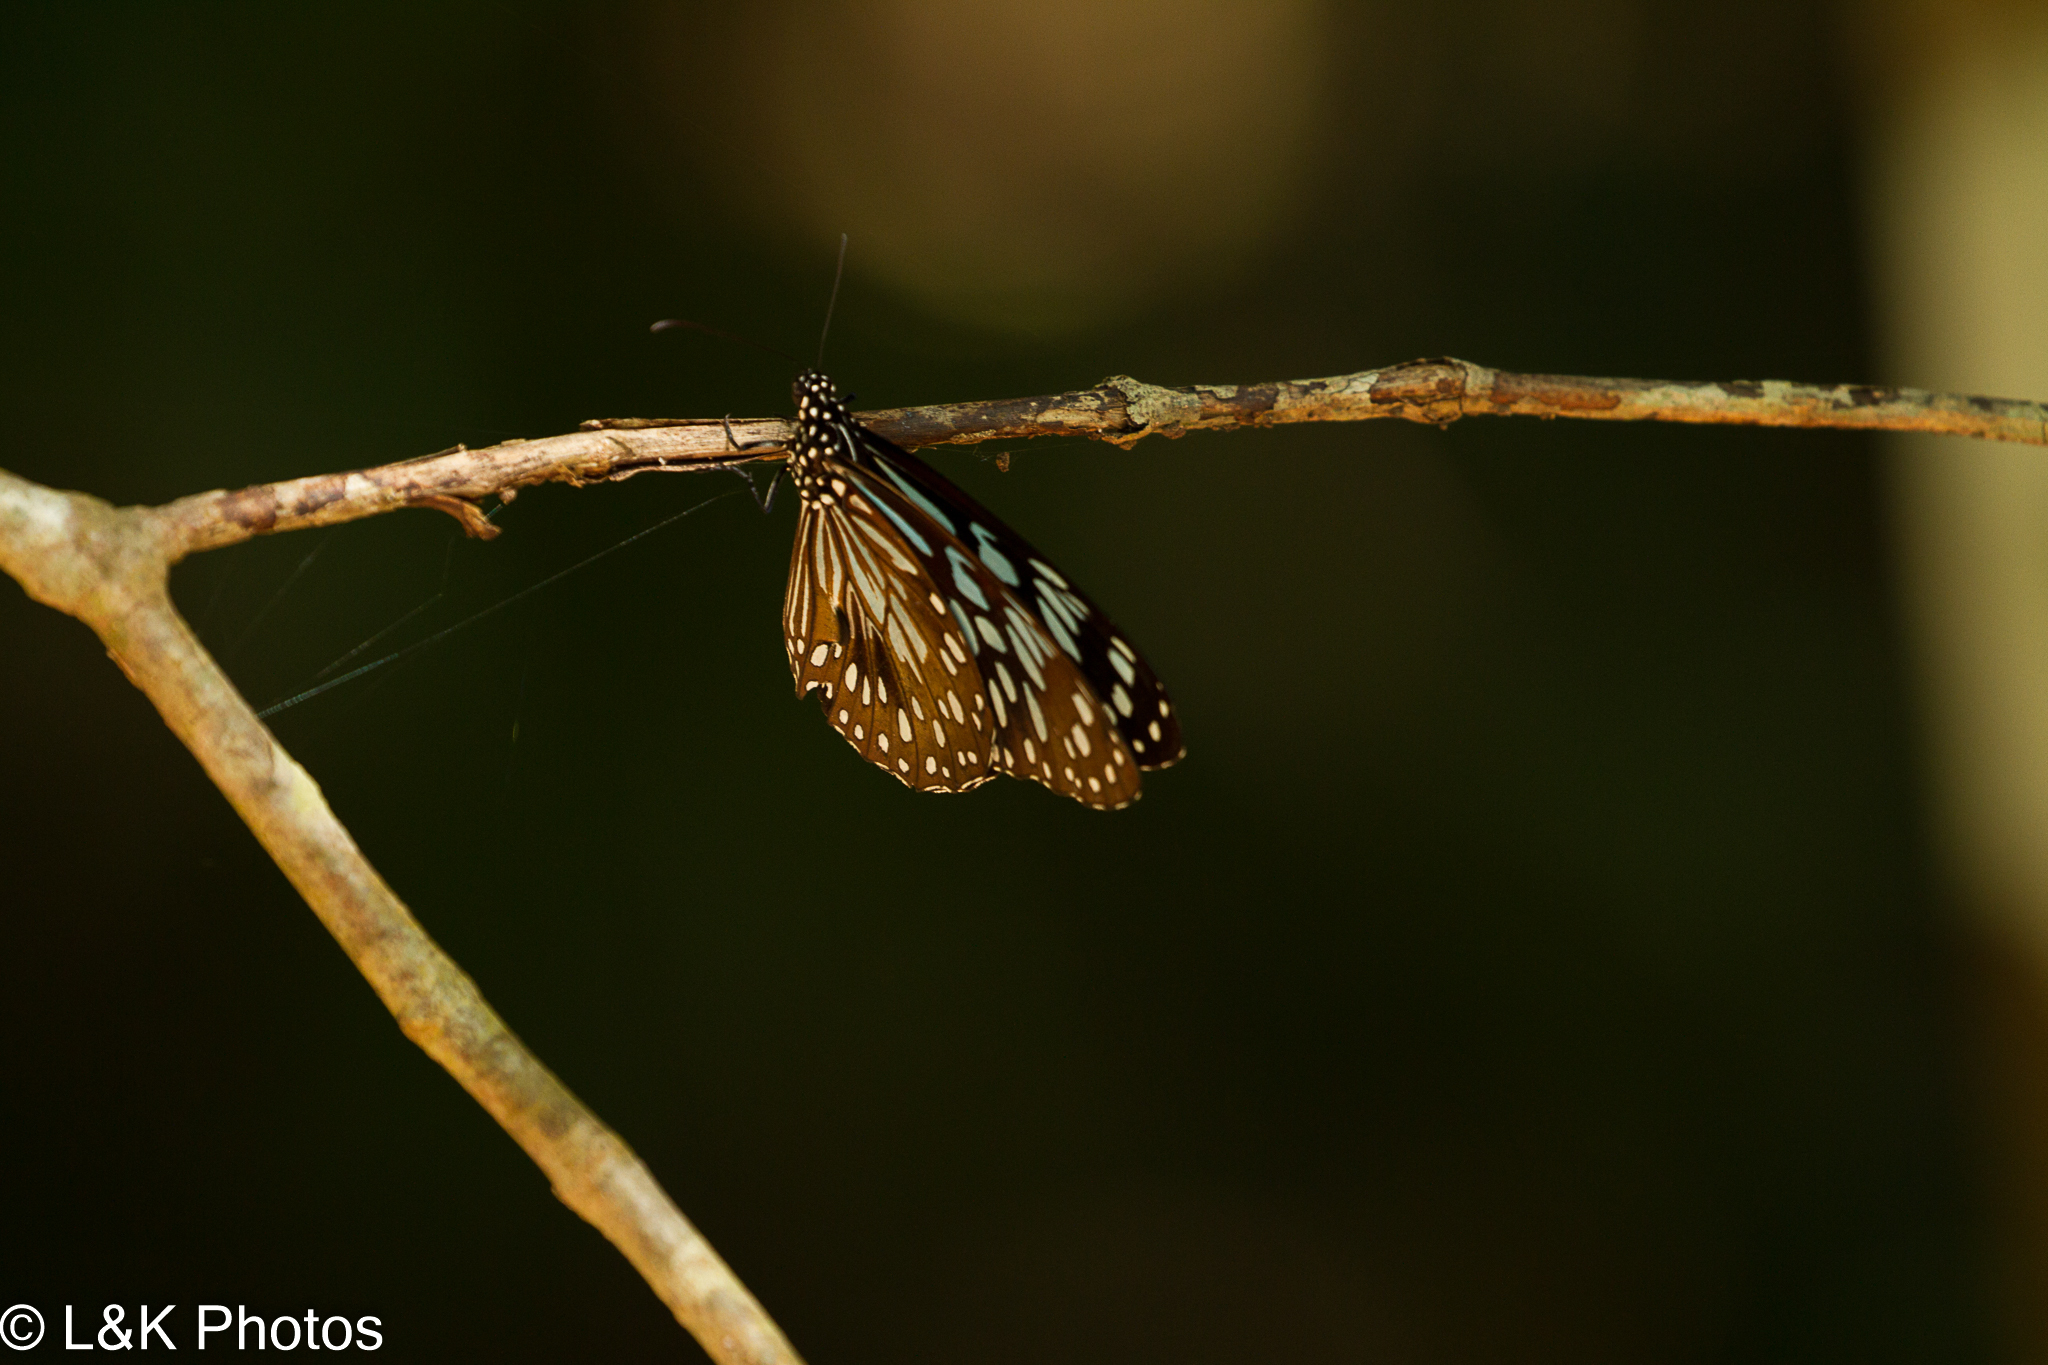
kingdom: Animalia
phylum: Arthropoda
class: Insecta
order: Lepidoptera
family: Nymphalidae
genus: Tirumala
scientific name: Tirumala hamata
